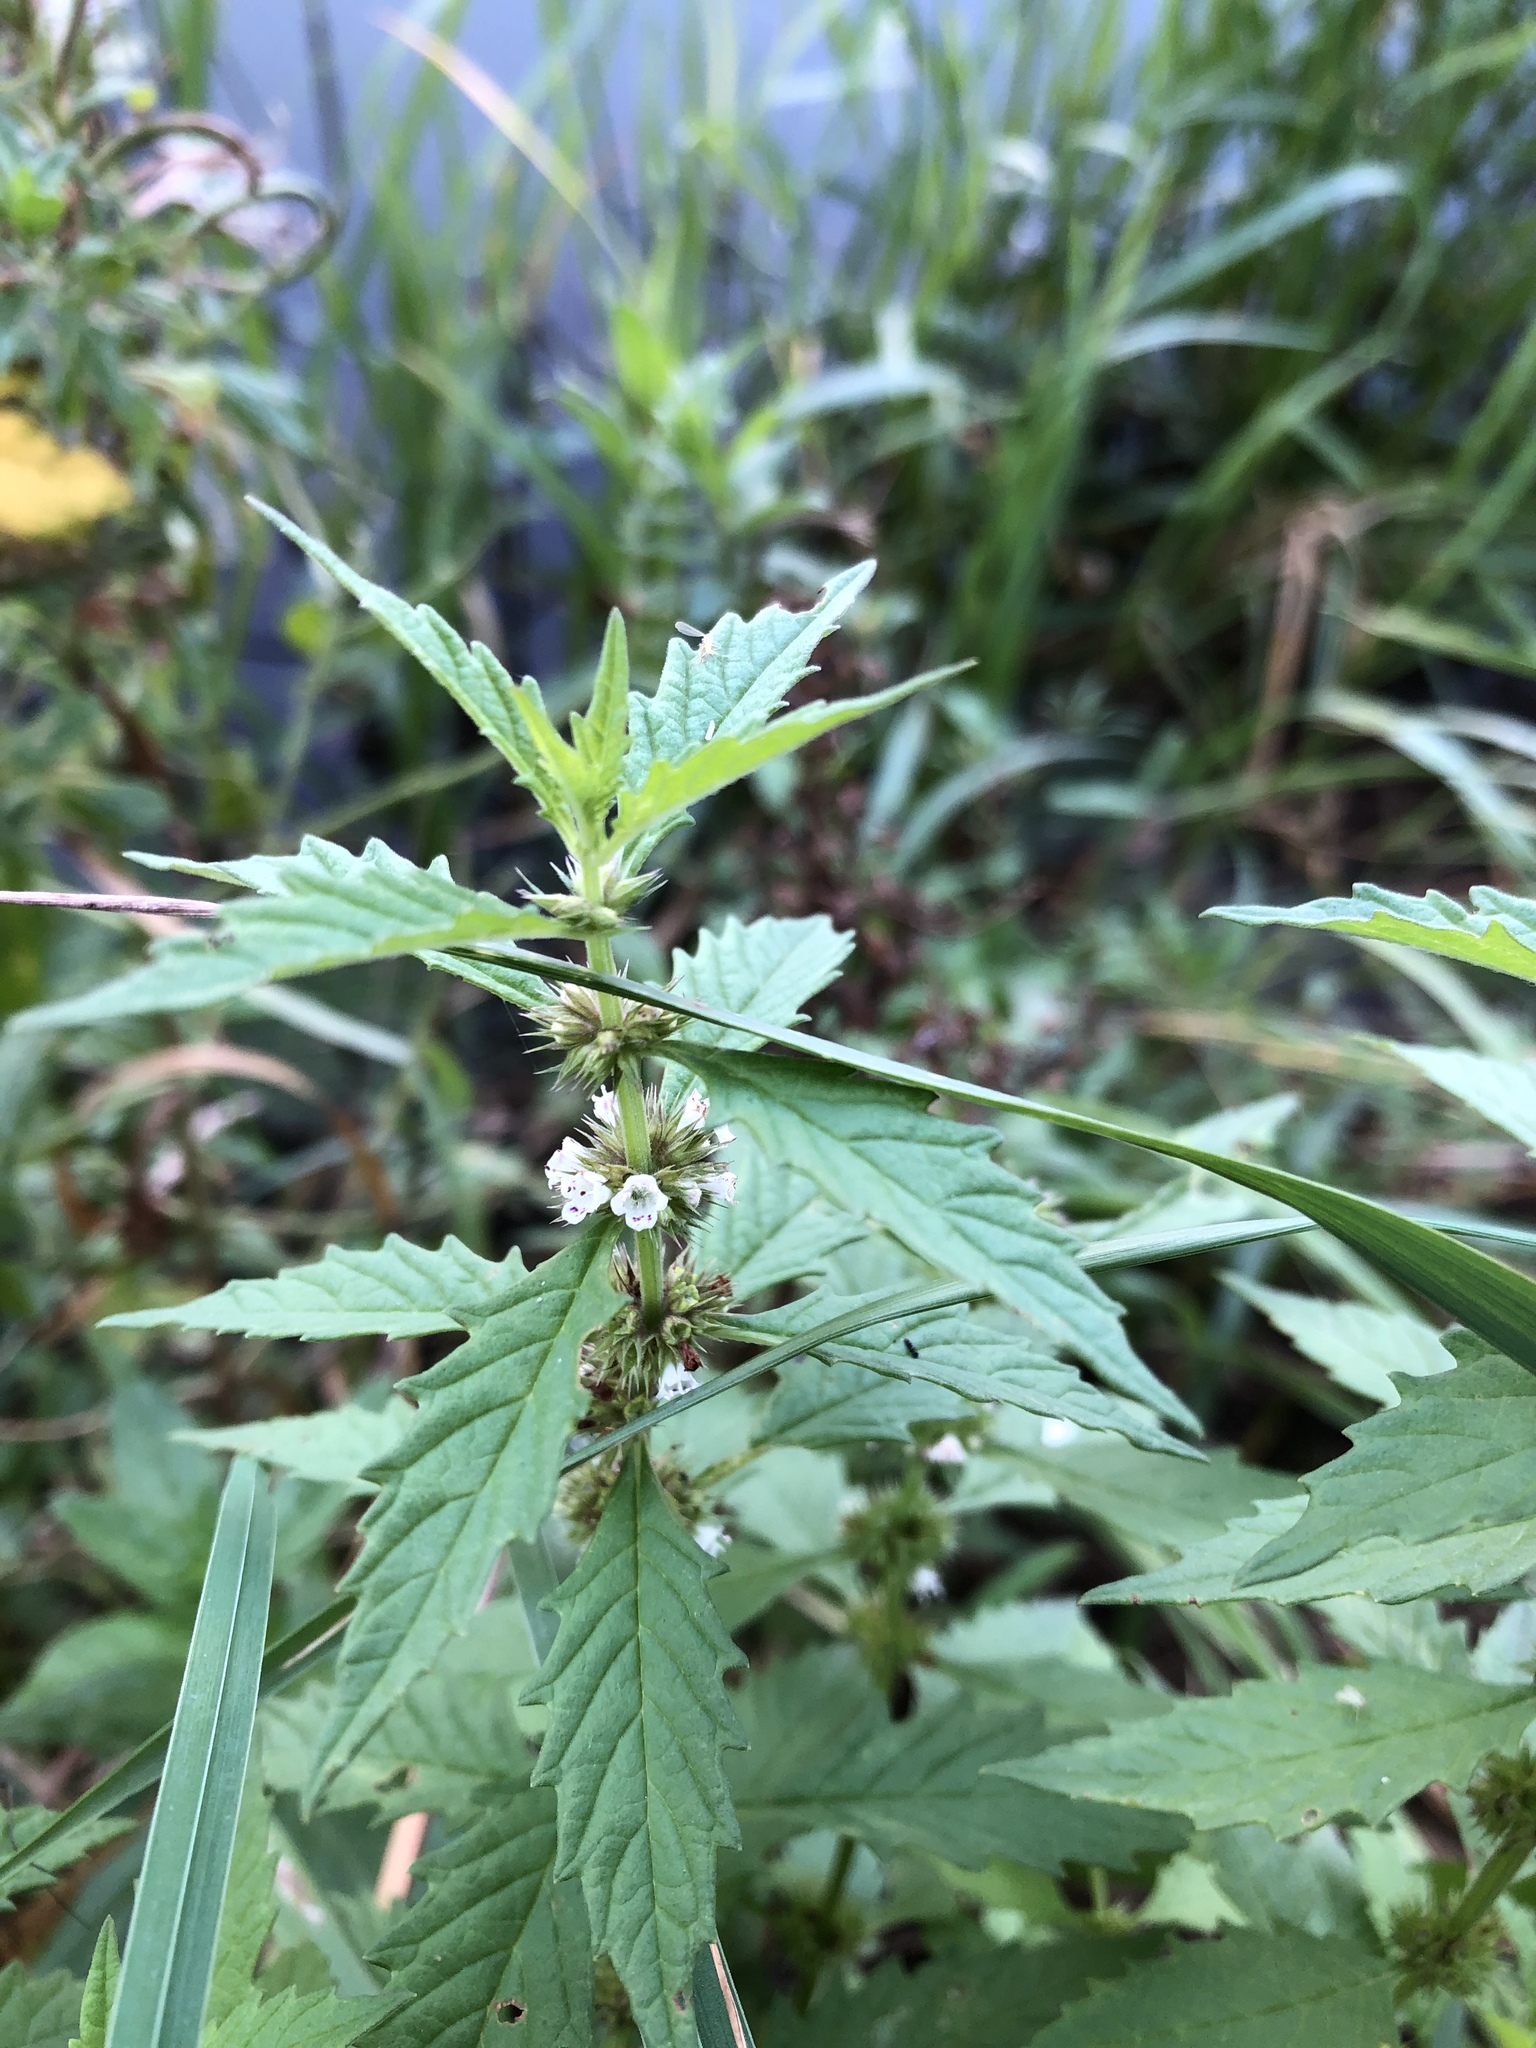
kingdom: Plantae
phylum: Tracheophyta
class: Magnoliopsida
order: Lamiales
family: Lamiaceae
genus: Lycopus
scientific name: Lycopus europaeus
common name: European bugleweed
